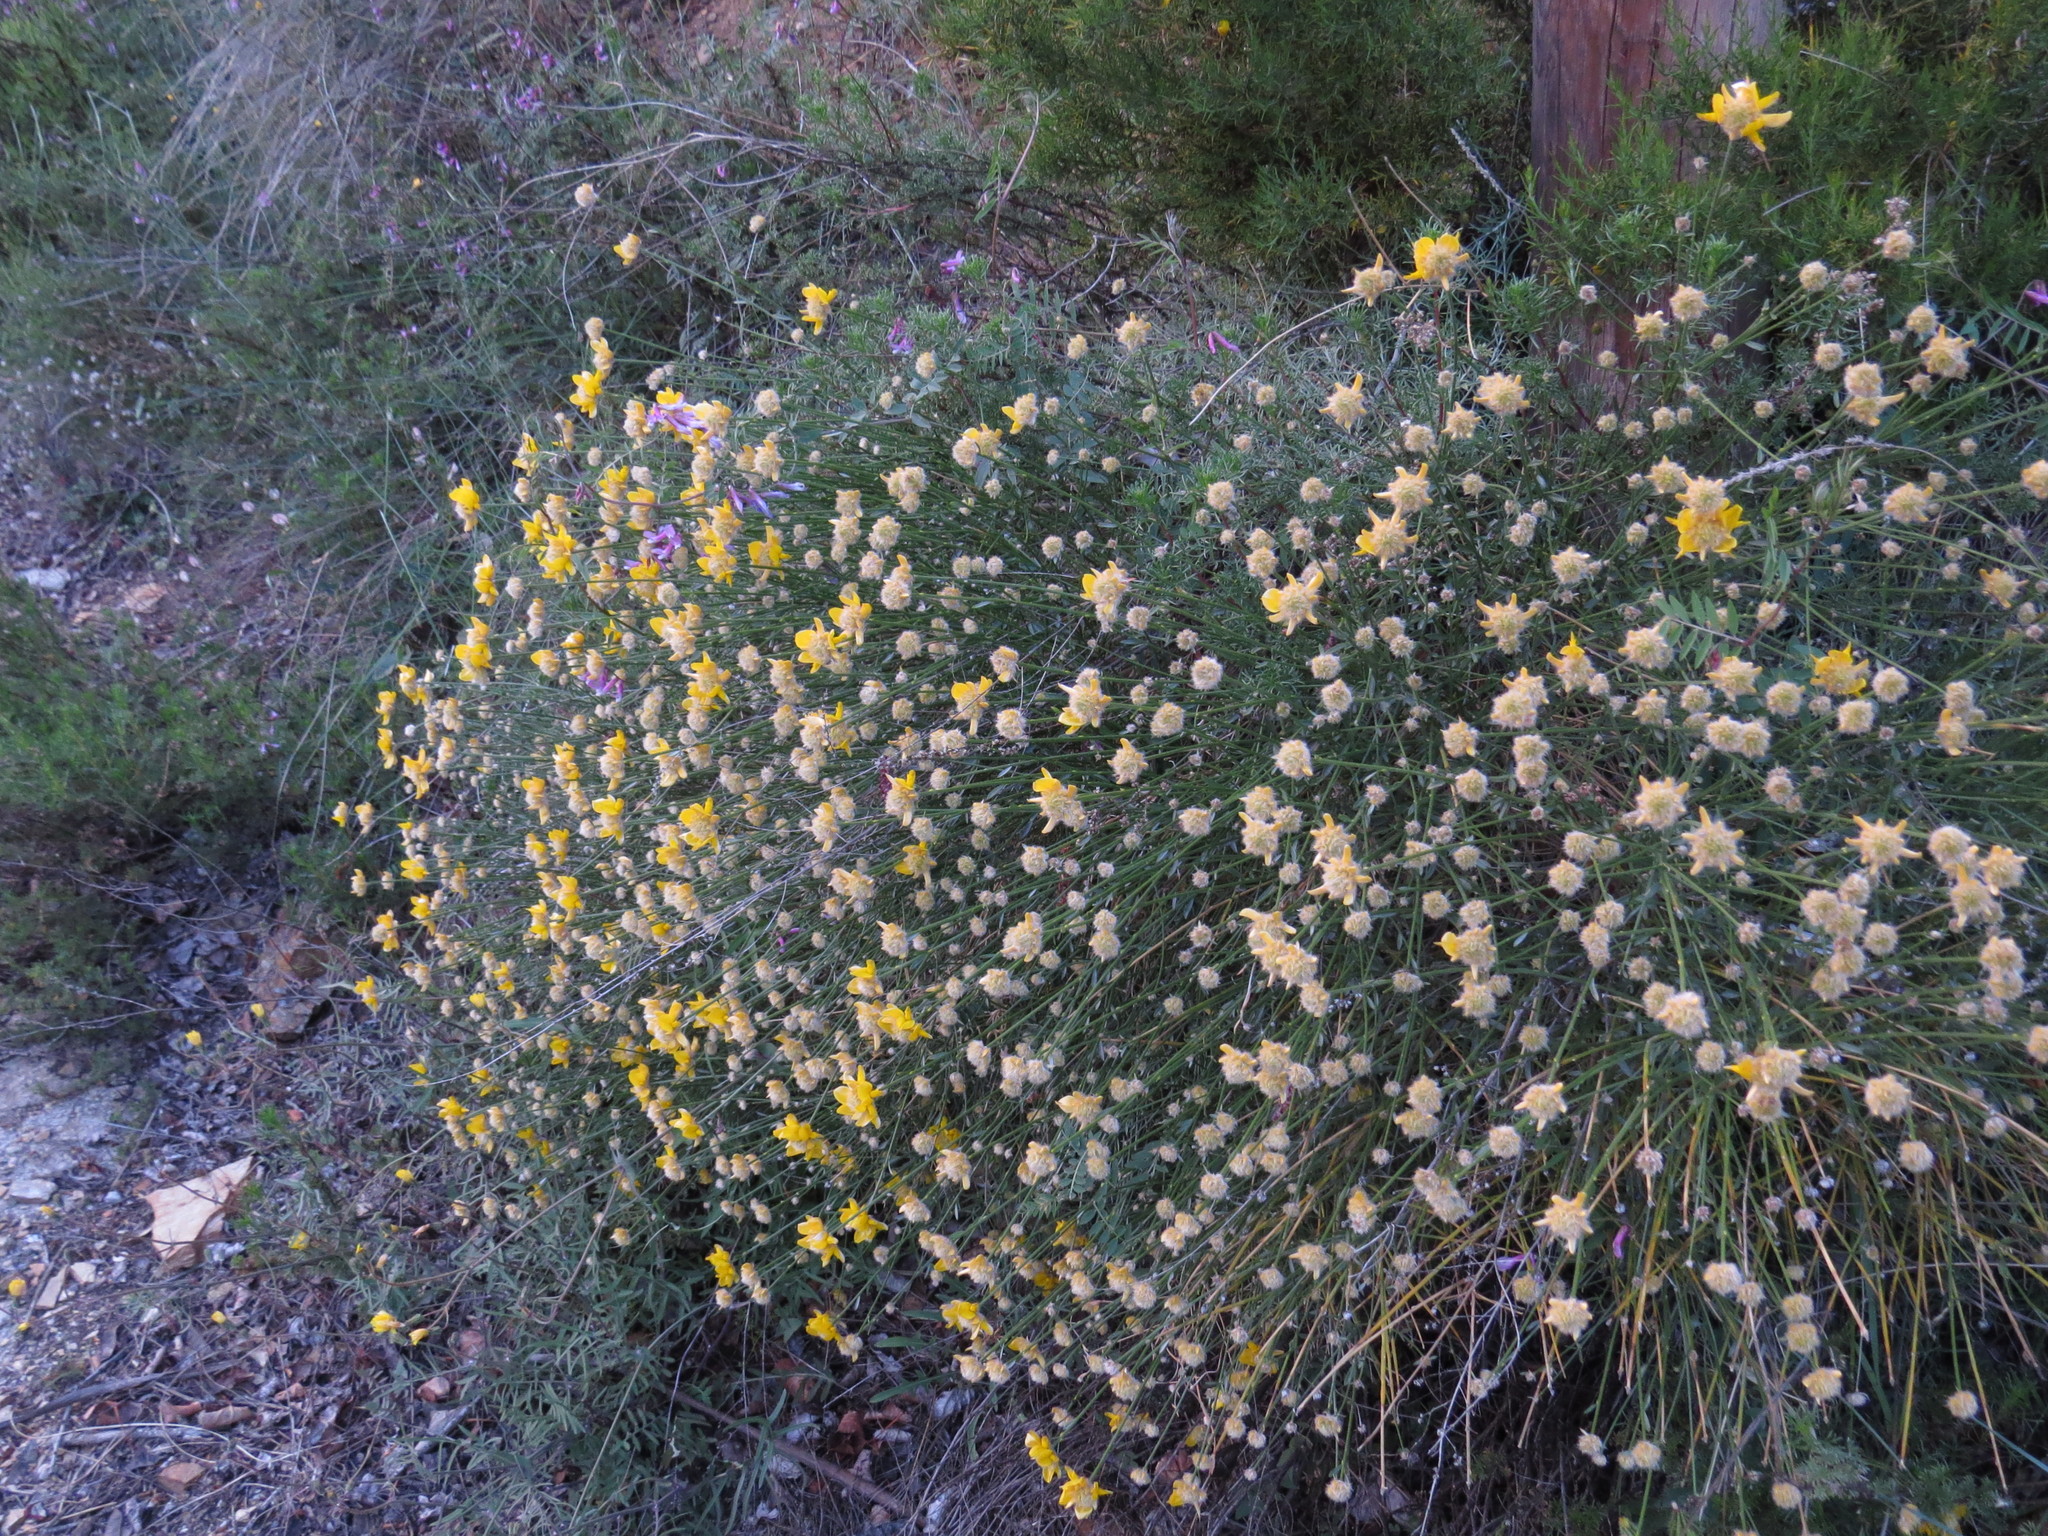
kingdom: Plantae
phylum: Tracheophyta
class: Magnoliopsida
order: Fabales
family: Fabaceae
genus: Genista
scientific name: Genista umbellata
